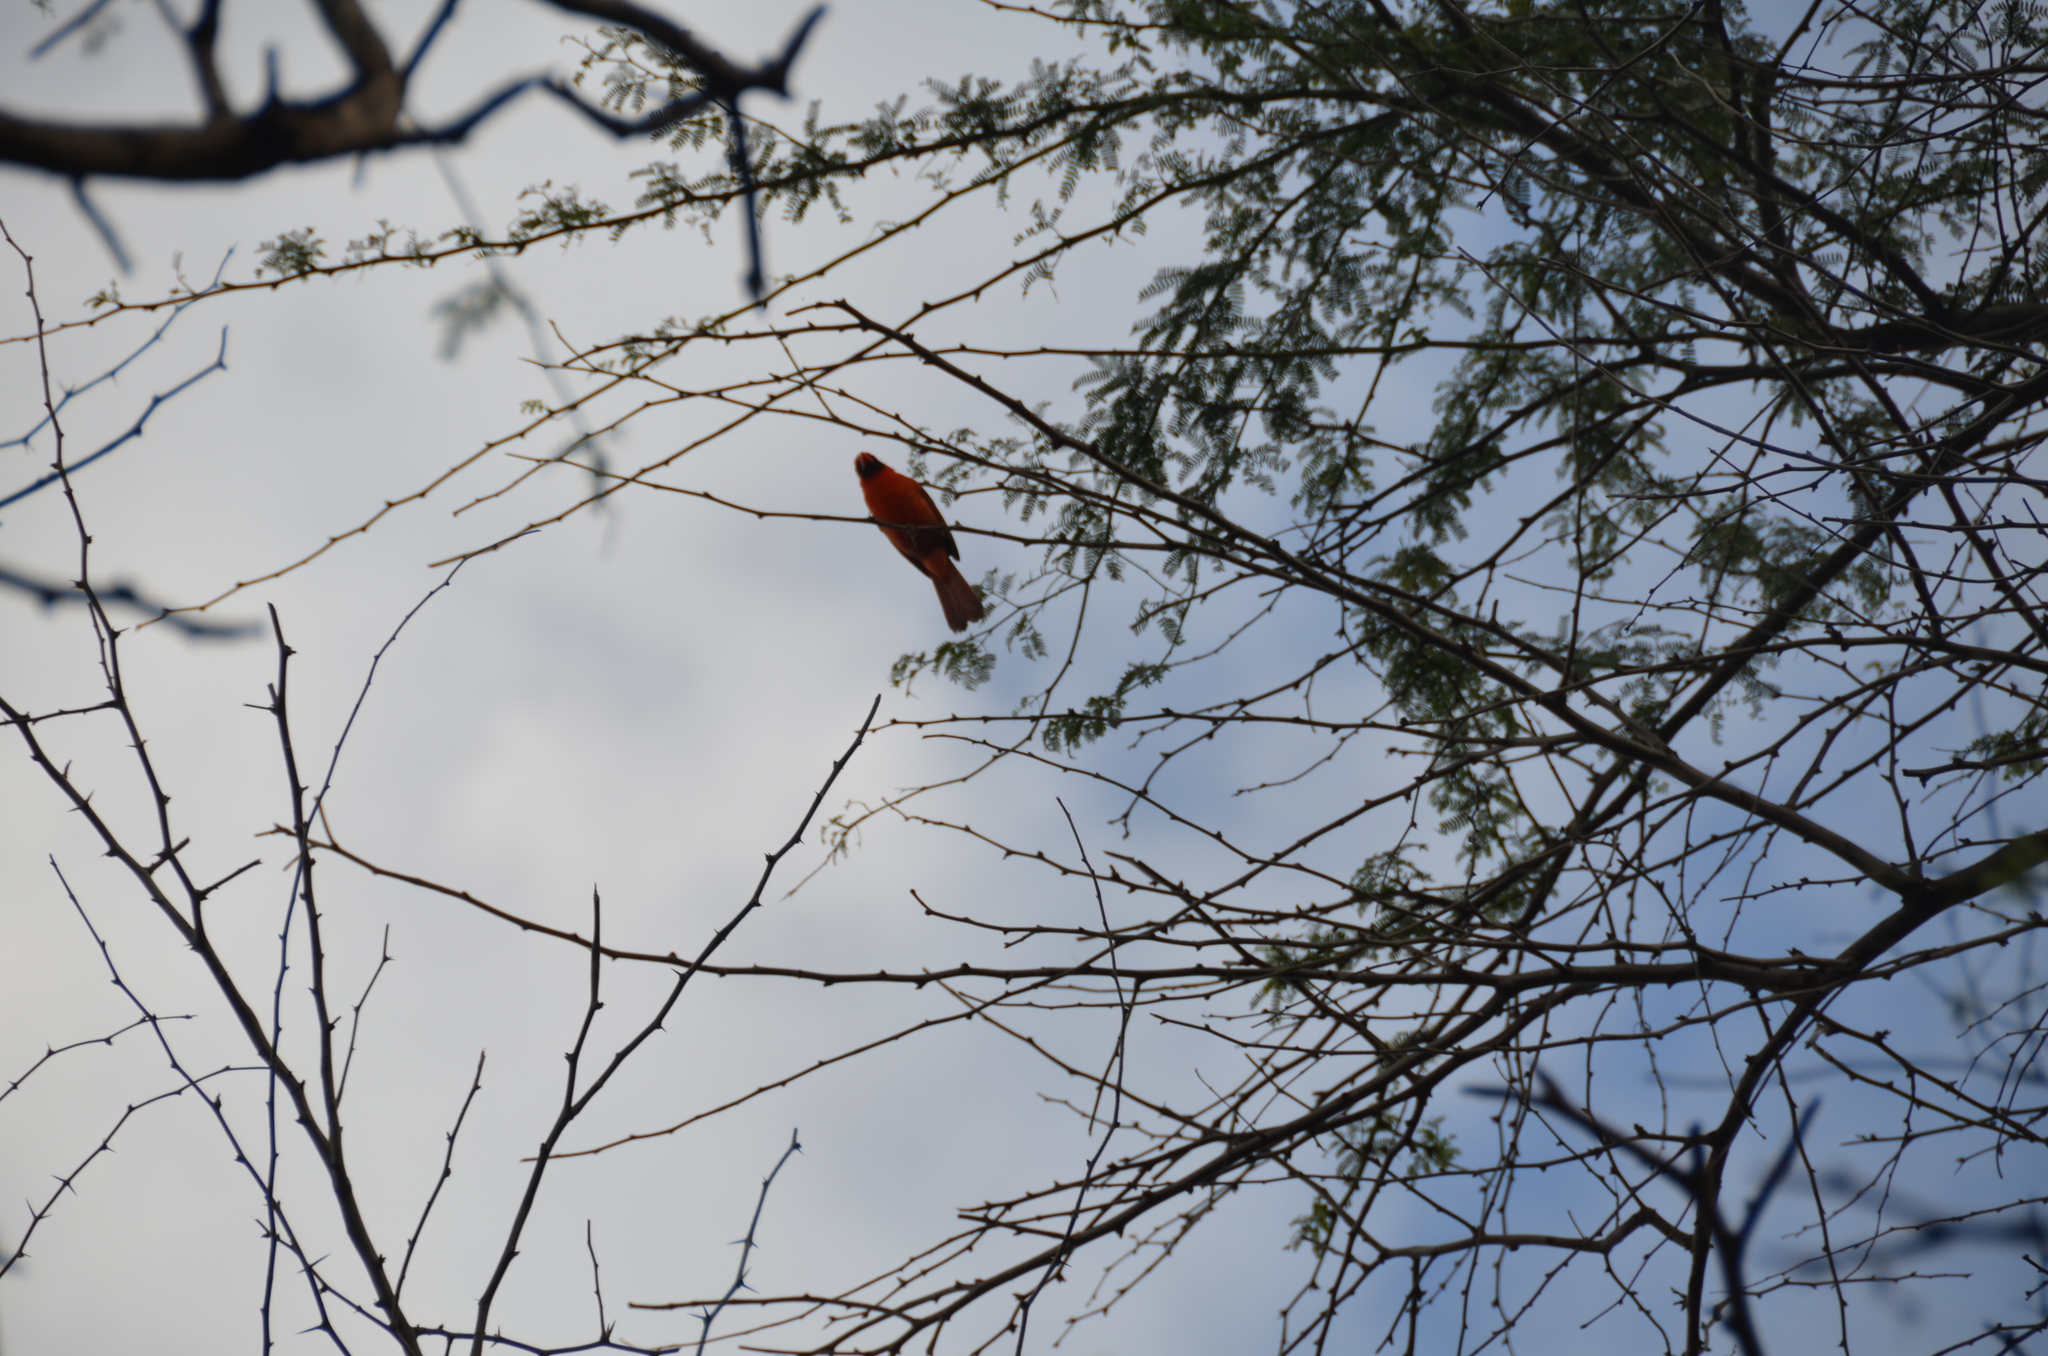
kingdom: Animalia
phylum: Chordata
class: Aves
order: Passeriformes
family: Cardinalidae
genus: Cardinalis
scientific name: Cardinalis cardinalis
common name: Northern cardinal
